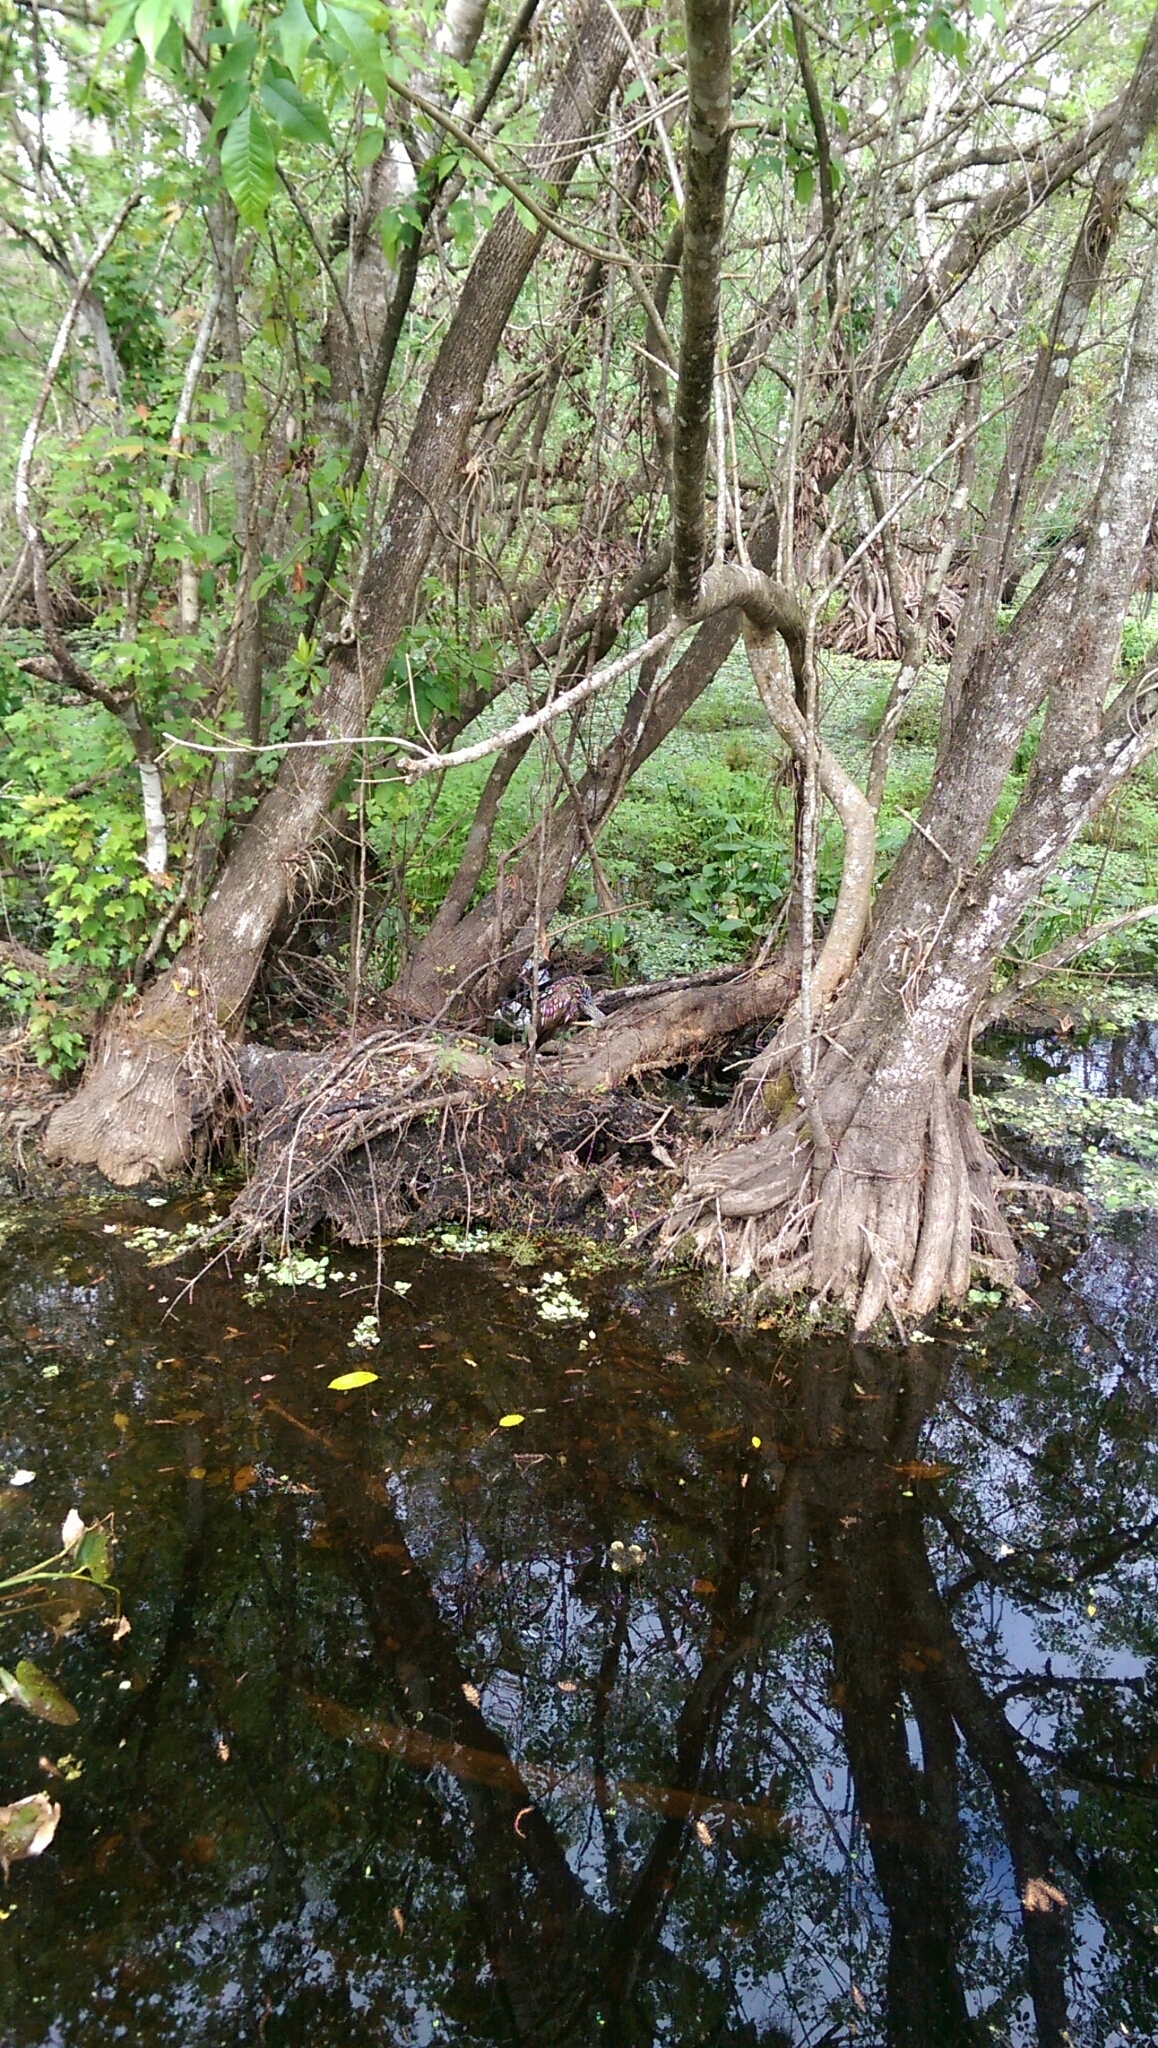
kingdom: Animalia
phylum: Chordata
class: Aves
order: Gruiformes
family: Aramidae
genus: Aramus
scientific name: Aramus guarauna
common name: Limpkin
